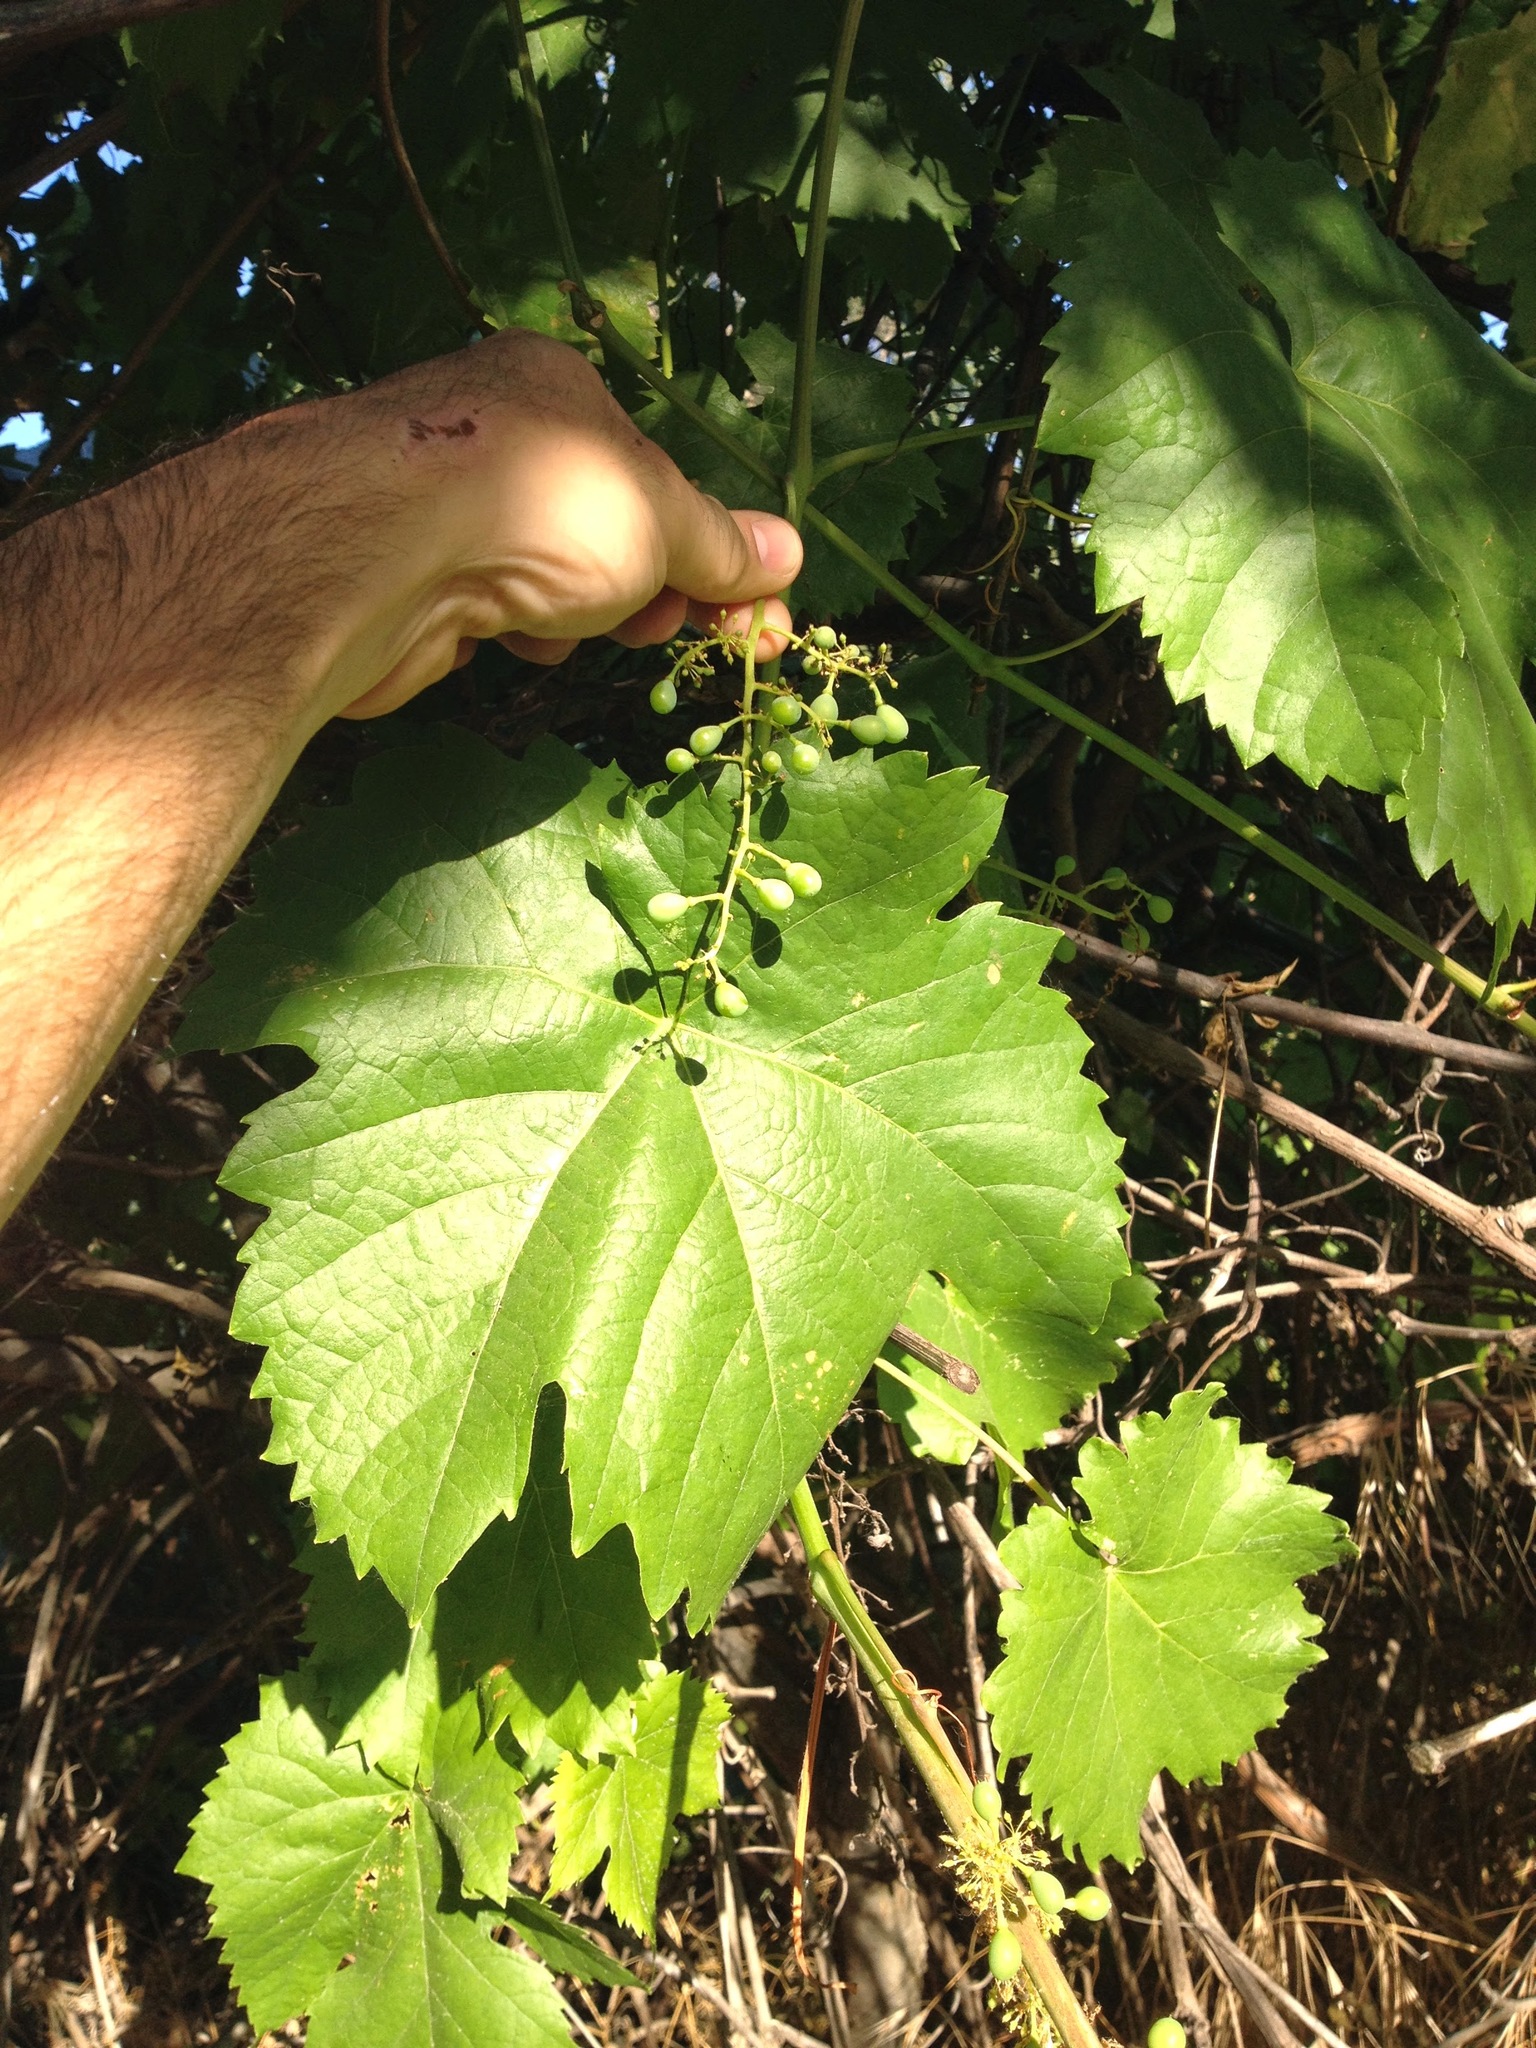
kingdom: Plantae
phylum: Tracheophyta
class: Magnoliopsida
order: Vitales
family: Vitaceae
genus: Vitis
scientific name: Vitis californica
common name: California wild grape
